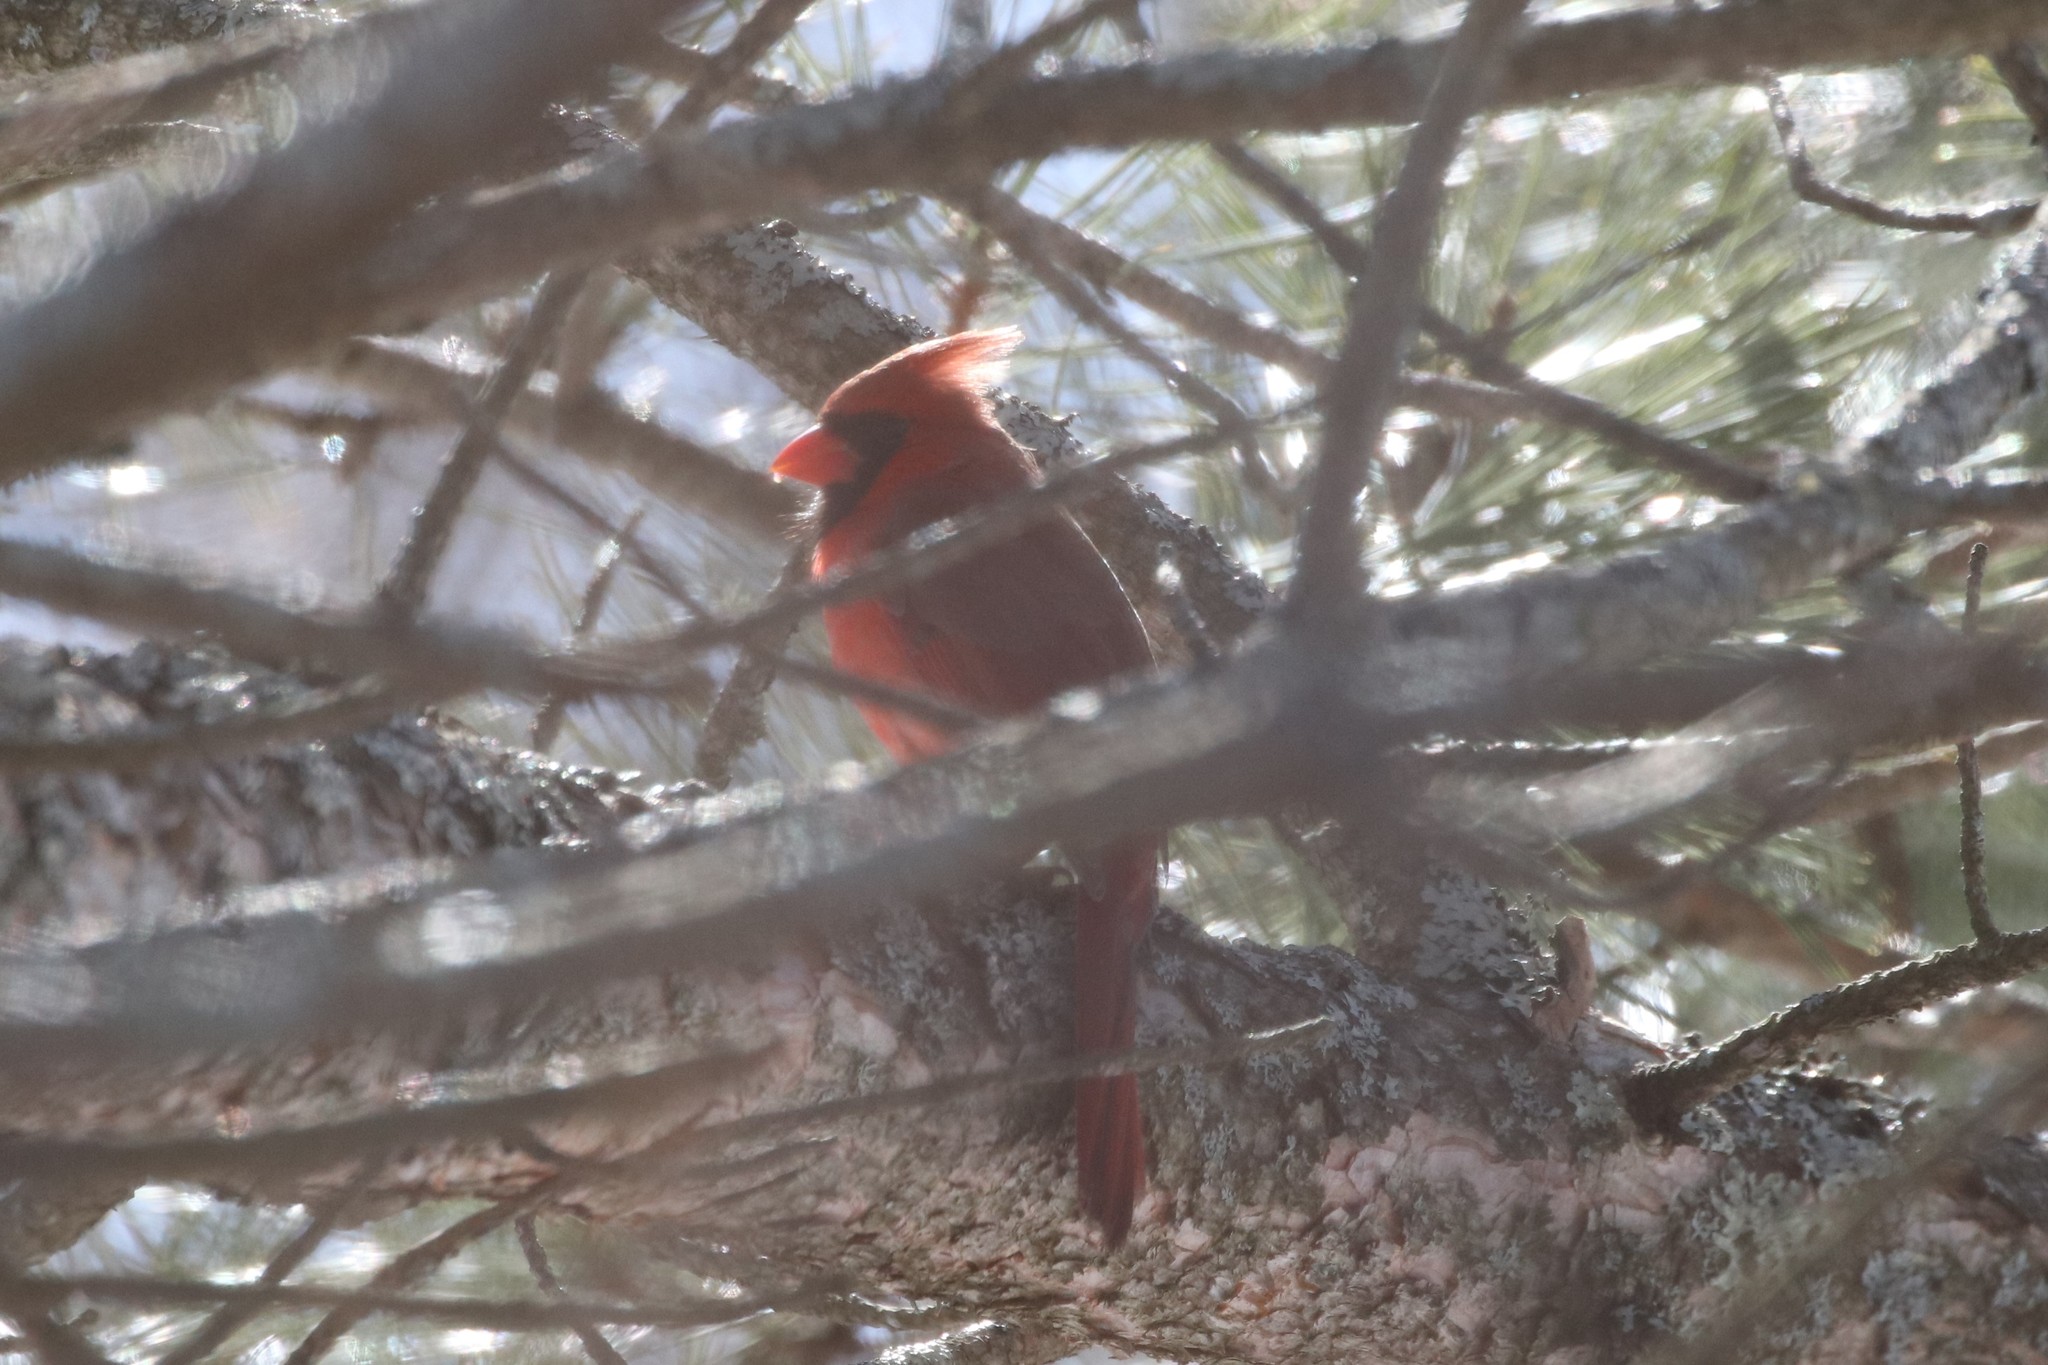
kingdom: Animalia
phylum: Chordata
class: Aves
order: Passeriformes
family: Cardinalidae
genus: Cardinalis
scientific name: Cardinalis cardinalis
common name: Northern cardinal
